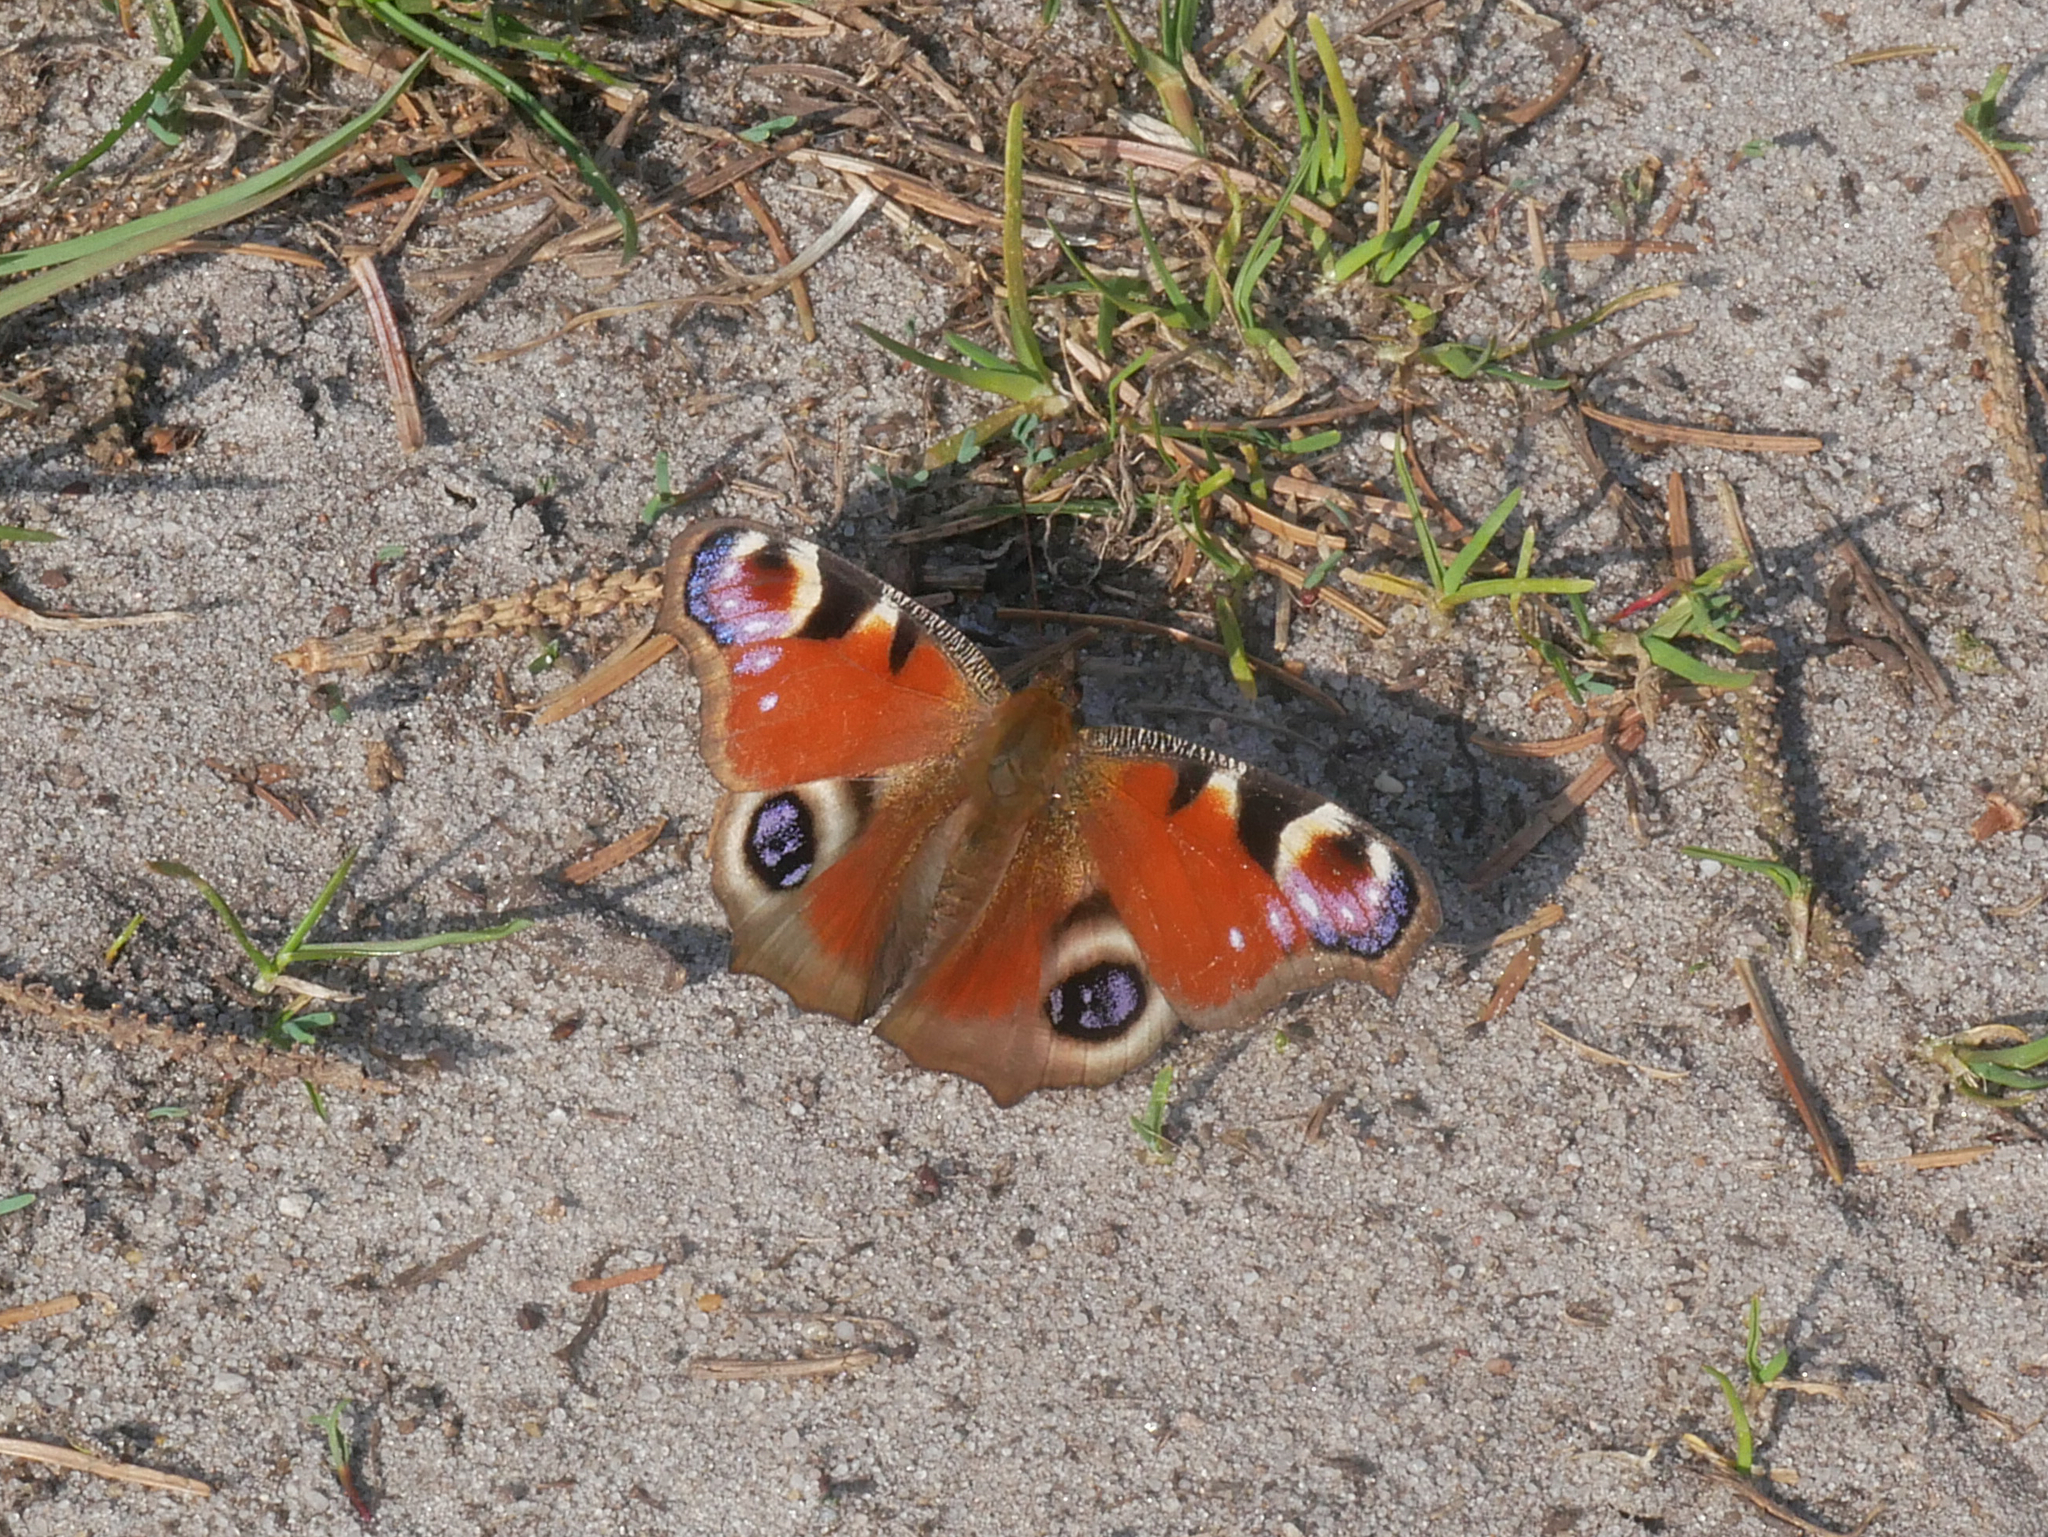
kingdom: Animalia
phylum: Arthropoda
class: Insecta
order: Lepidoptera
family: Nymphalidae
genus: Aglais
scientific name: Aglais io
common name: Peacock
